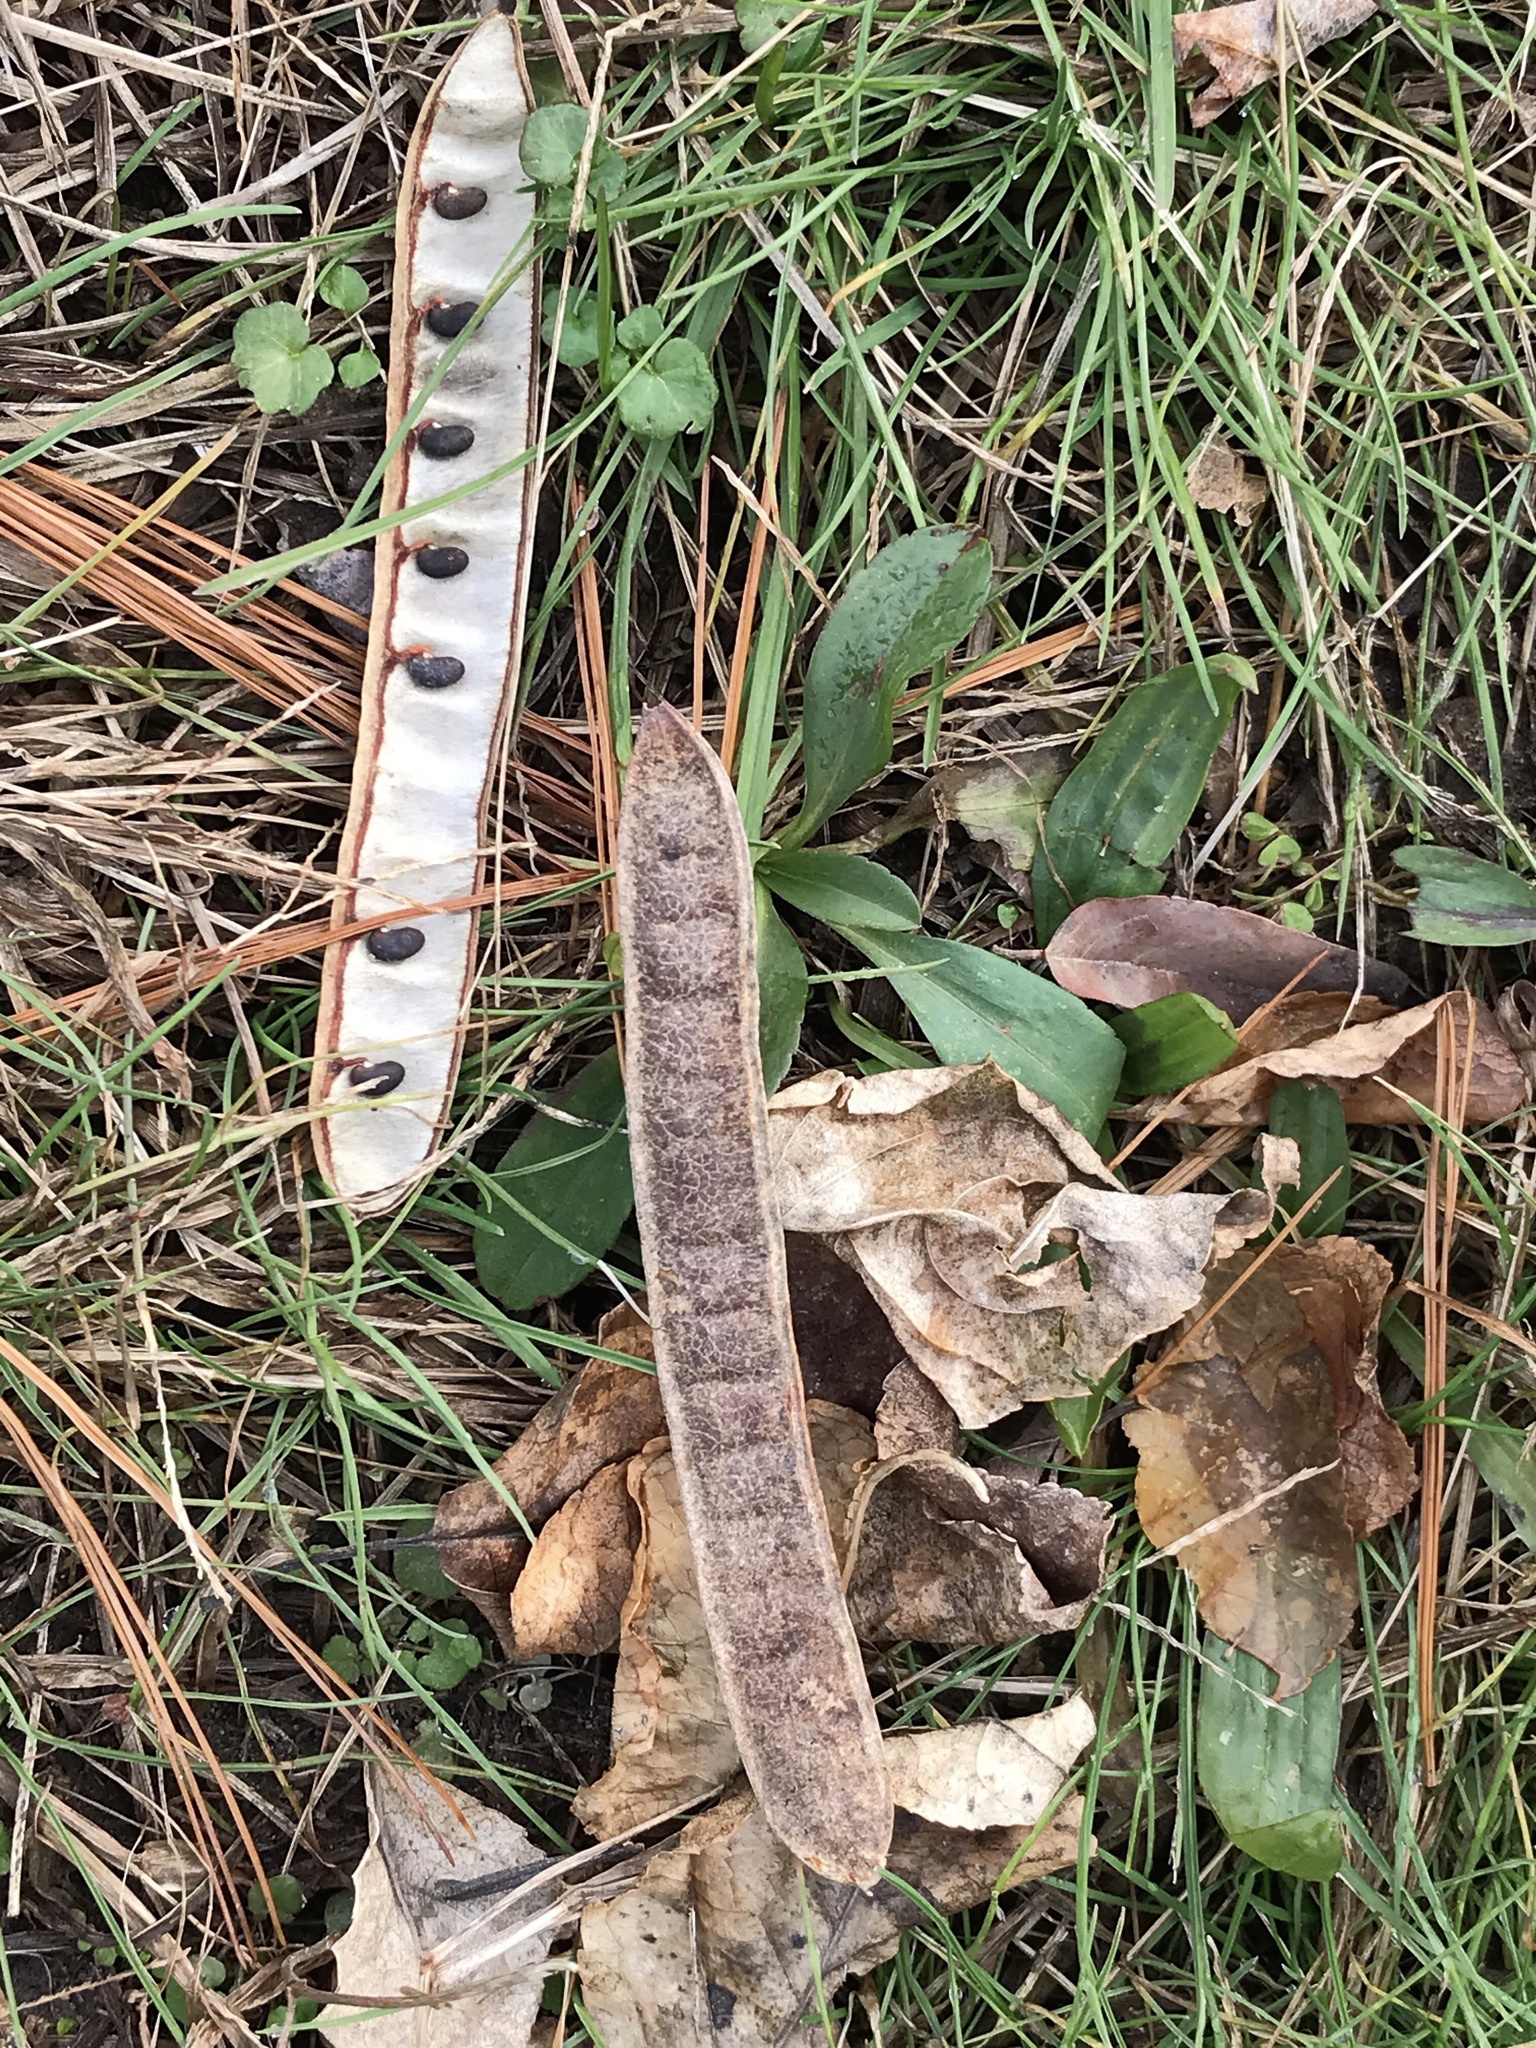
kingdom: Plantae
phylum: Tracheophyta
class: Magnoliopsida
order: Fabales
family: Fabaceae
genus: Robinia
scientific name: Robinia pseudoacacia
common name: Black locust
